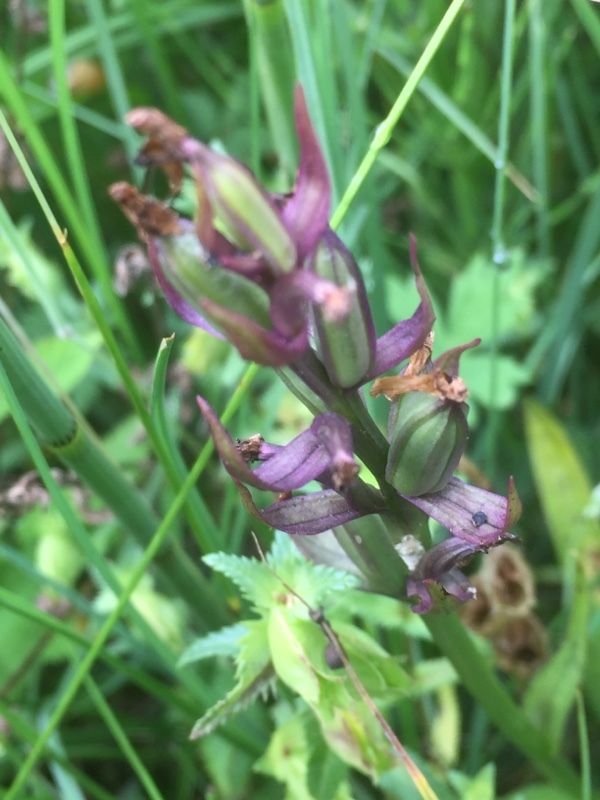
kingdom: Plantae
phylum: Tracheophyta
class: Liliopsida
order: Asparagales
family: Orchidaceae
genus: Dactylorhiza
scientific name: Dactylorhiza majalis
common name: Marsh orchid
